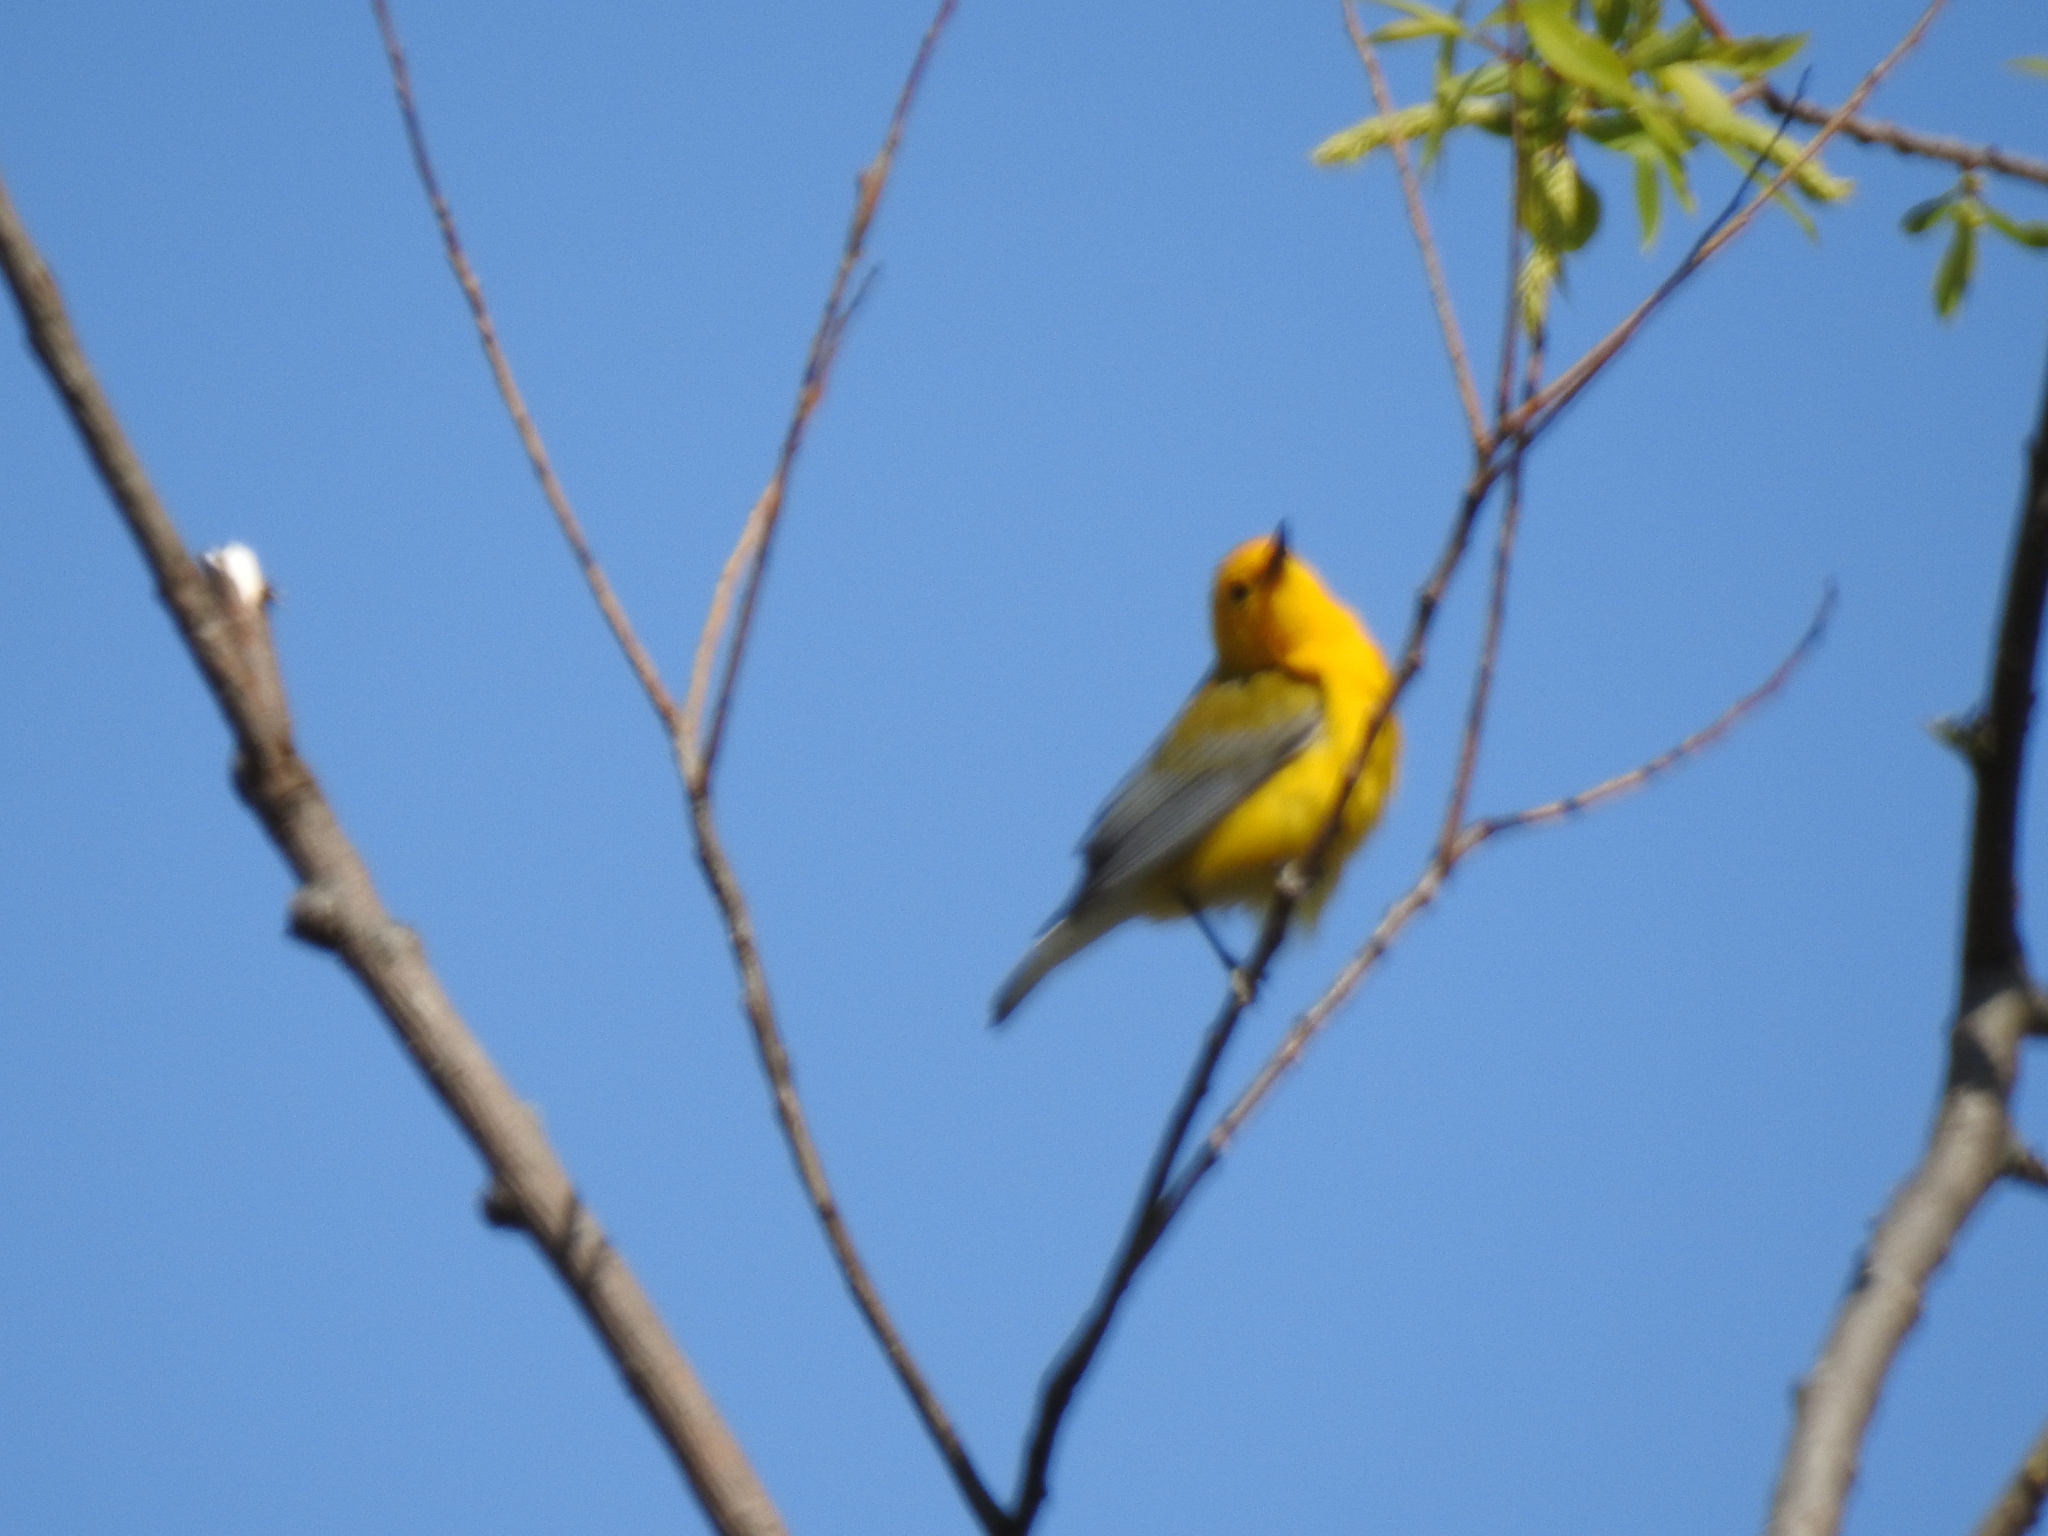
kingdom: Animalia
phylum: Chordata
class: Aves
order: Passeriformes
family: Parulidae
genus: Protonotaria
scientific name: Protonotaria citrea
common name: Prothonotary warbler
